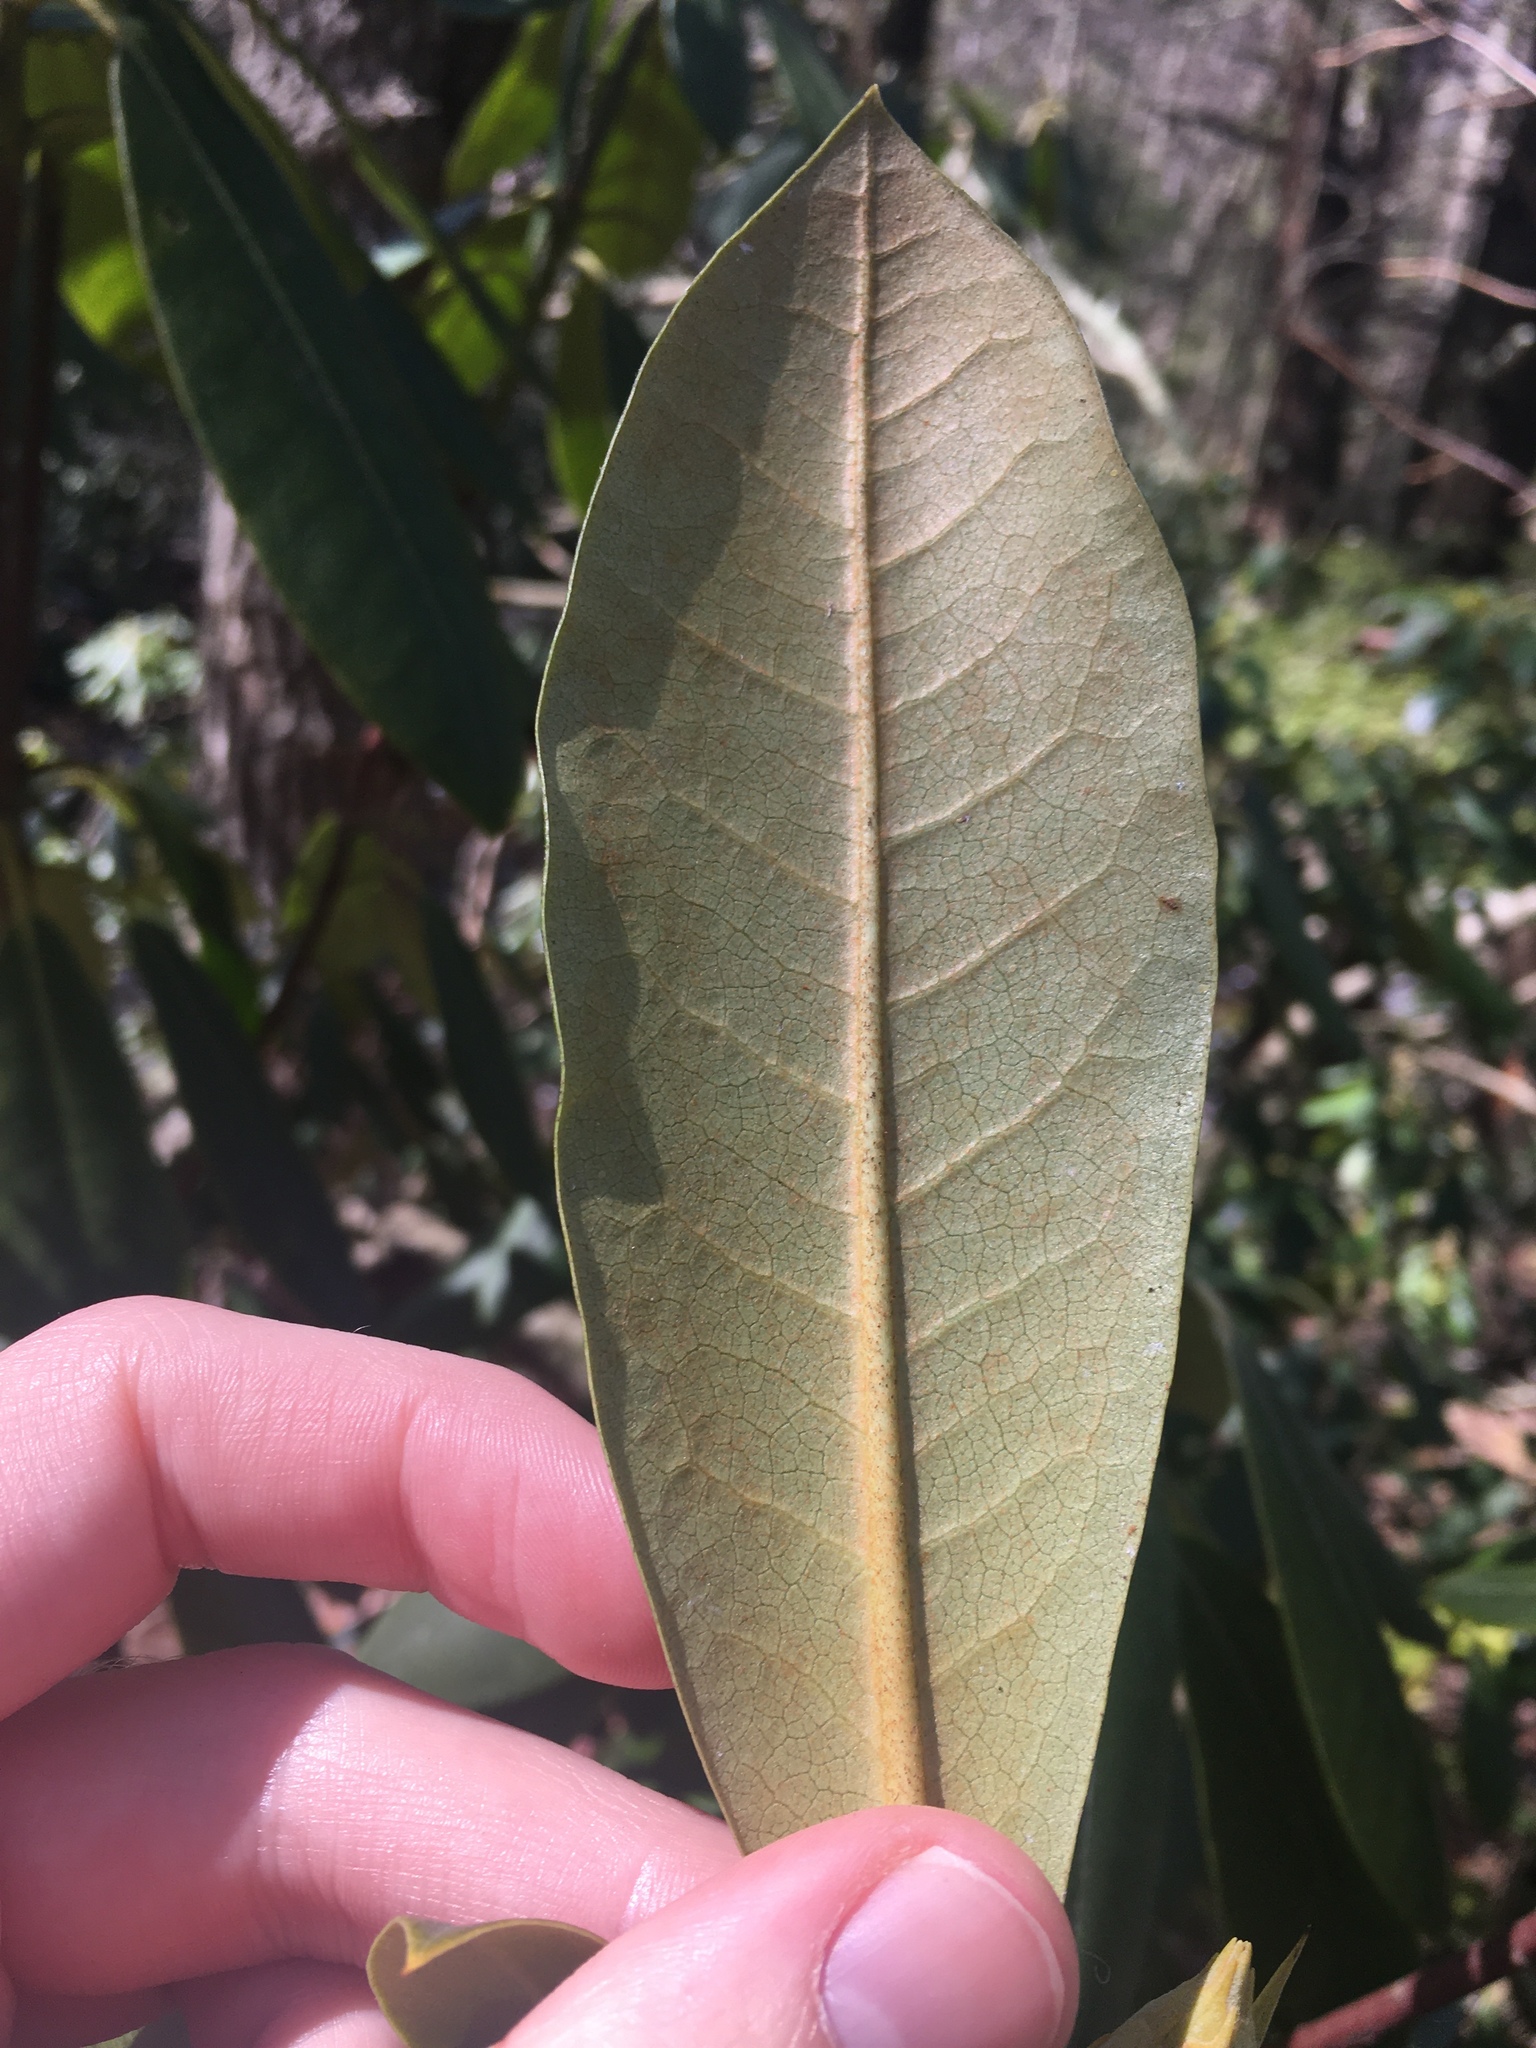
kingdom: Plantae
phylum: Tracheophyta
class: Magnoliopsida
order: Ericales
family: Ericaceae
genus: Rhododendron
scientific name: Rhododendron maximum
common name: Great rhododendron
